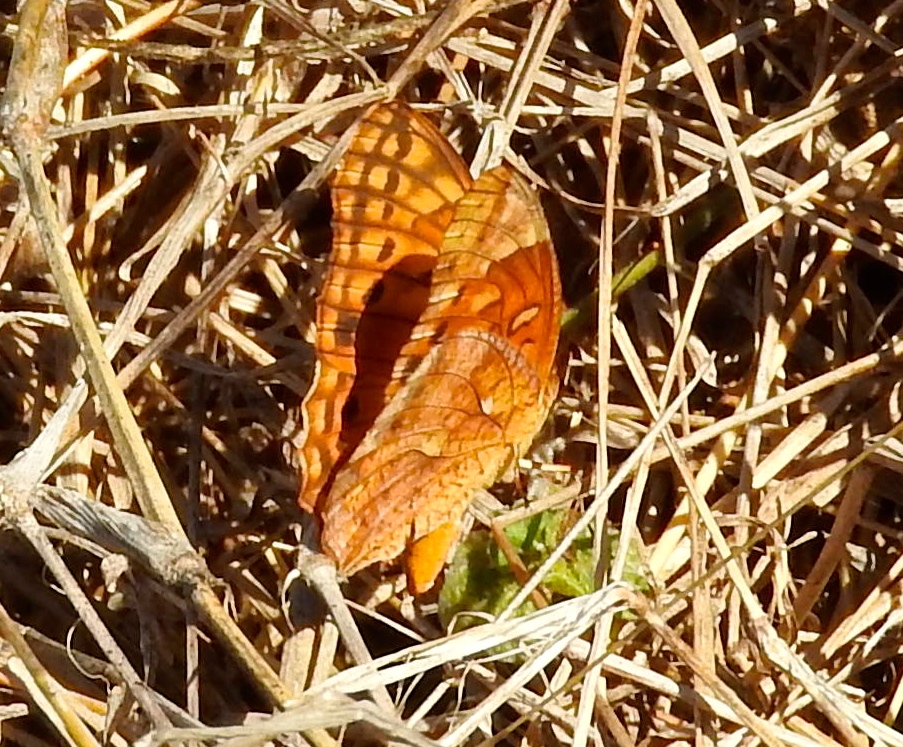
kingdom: Animalia
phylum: Arthropoda
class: Insecta
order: Lepidoptera
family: Nymphalidae
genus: Euptoieta
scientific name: Euptoieta hegesia
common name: Mexican fritillary
